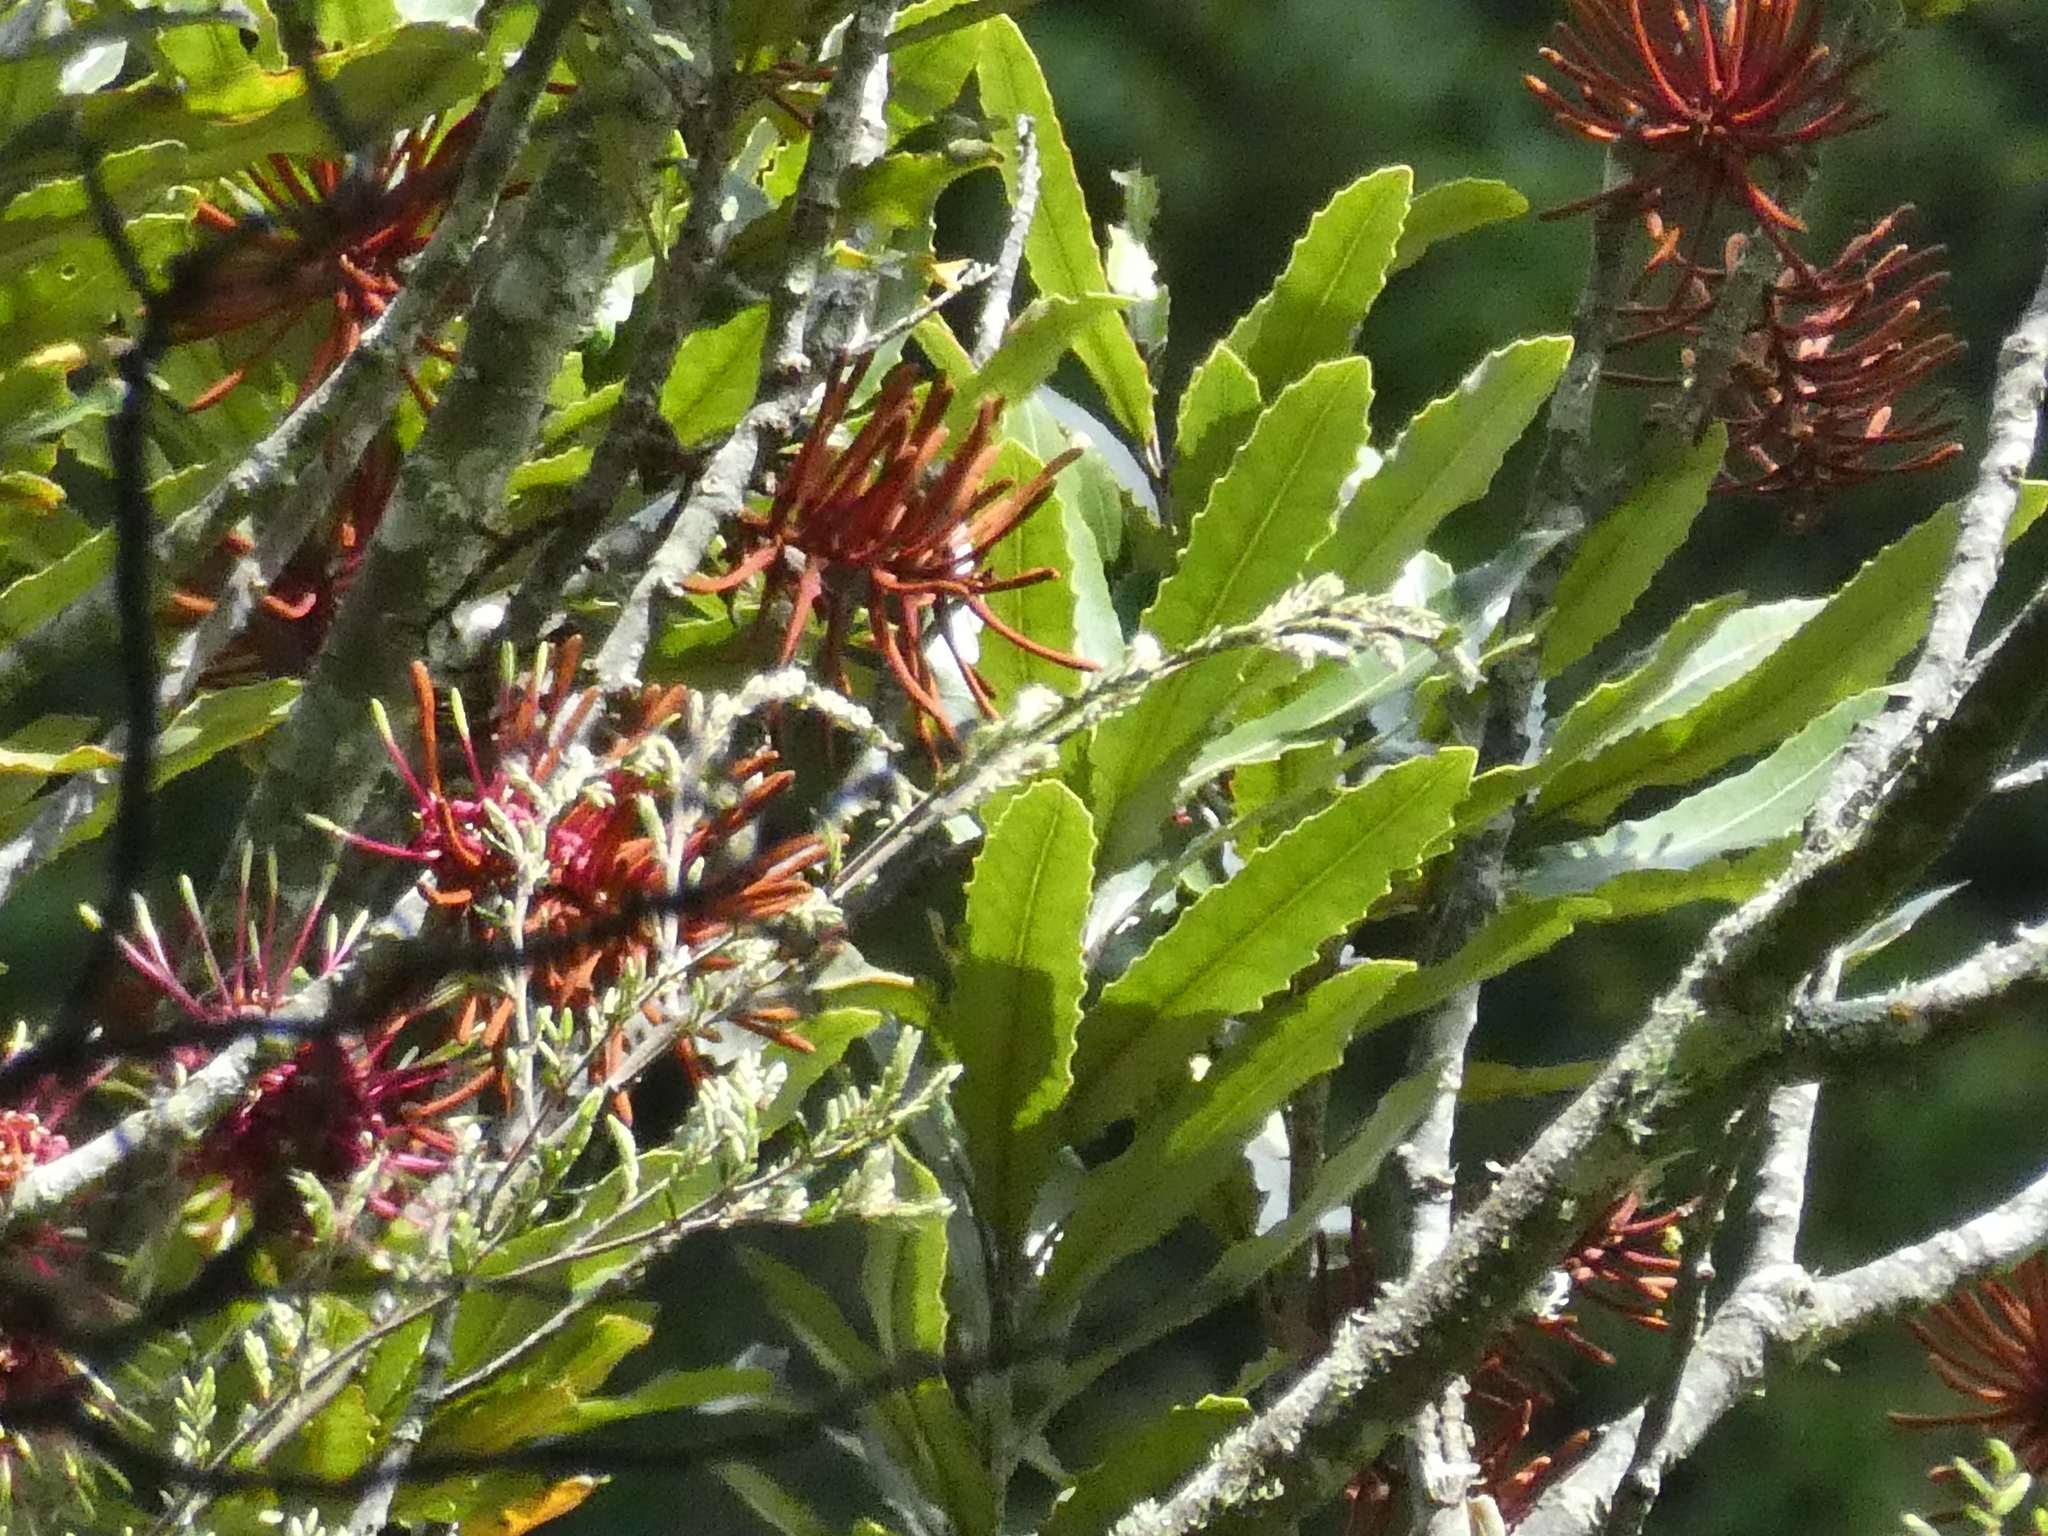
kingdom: Plantae
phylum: Tracheophyta
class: Magnoliopsida
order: Proteales
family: Proteaceae
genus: Knightia
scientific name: Knightia excelsa
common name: New zealand-honeysuckle
